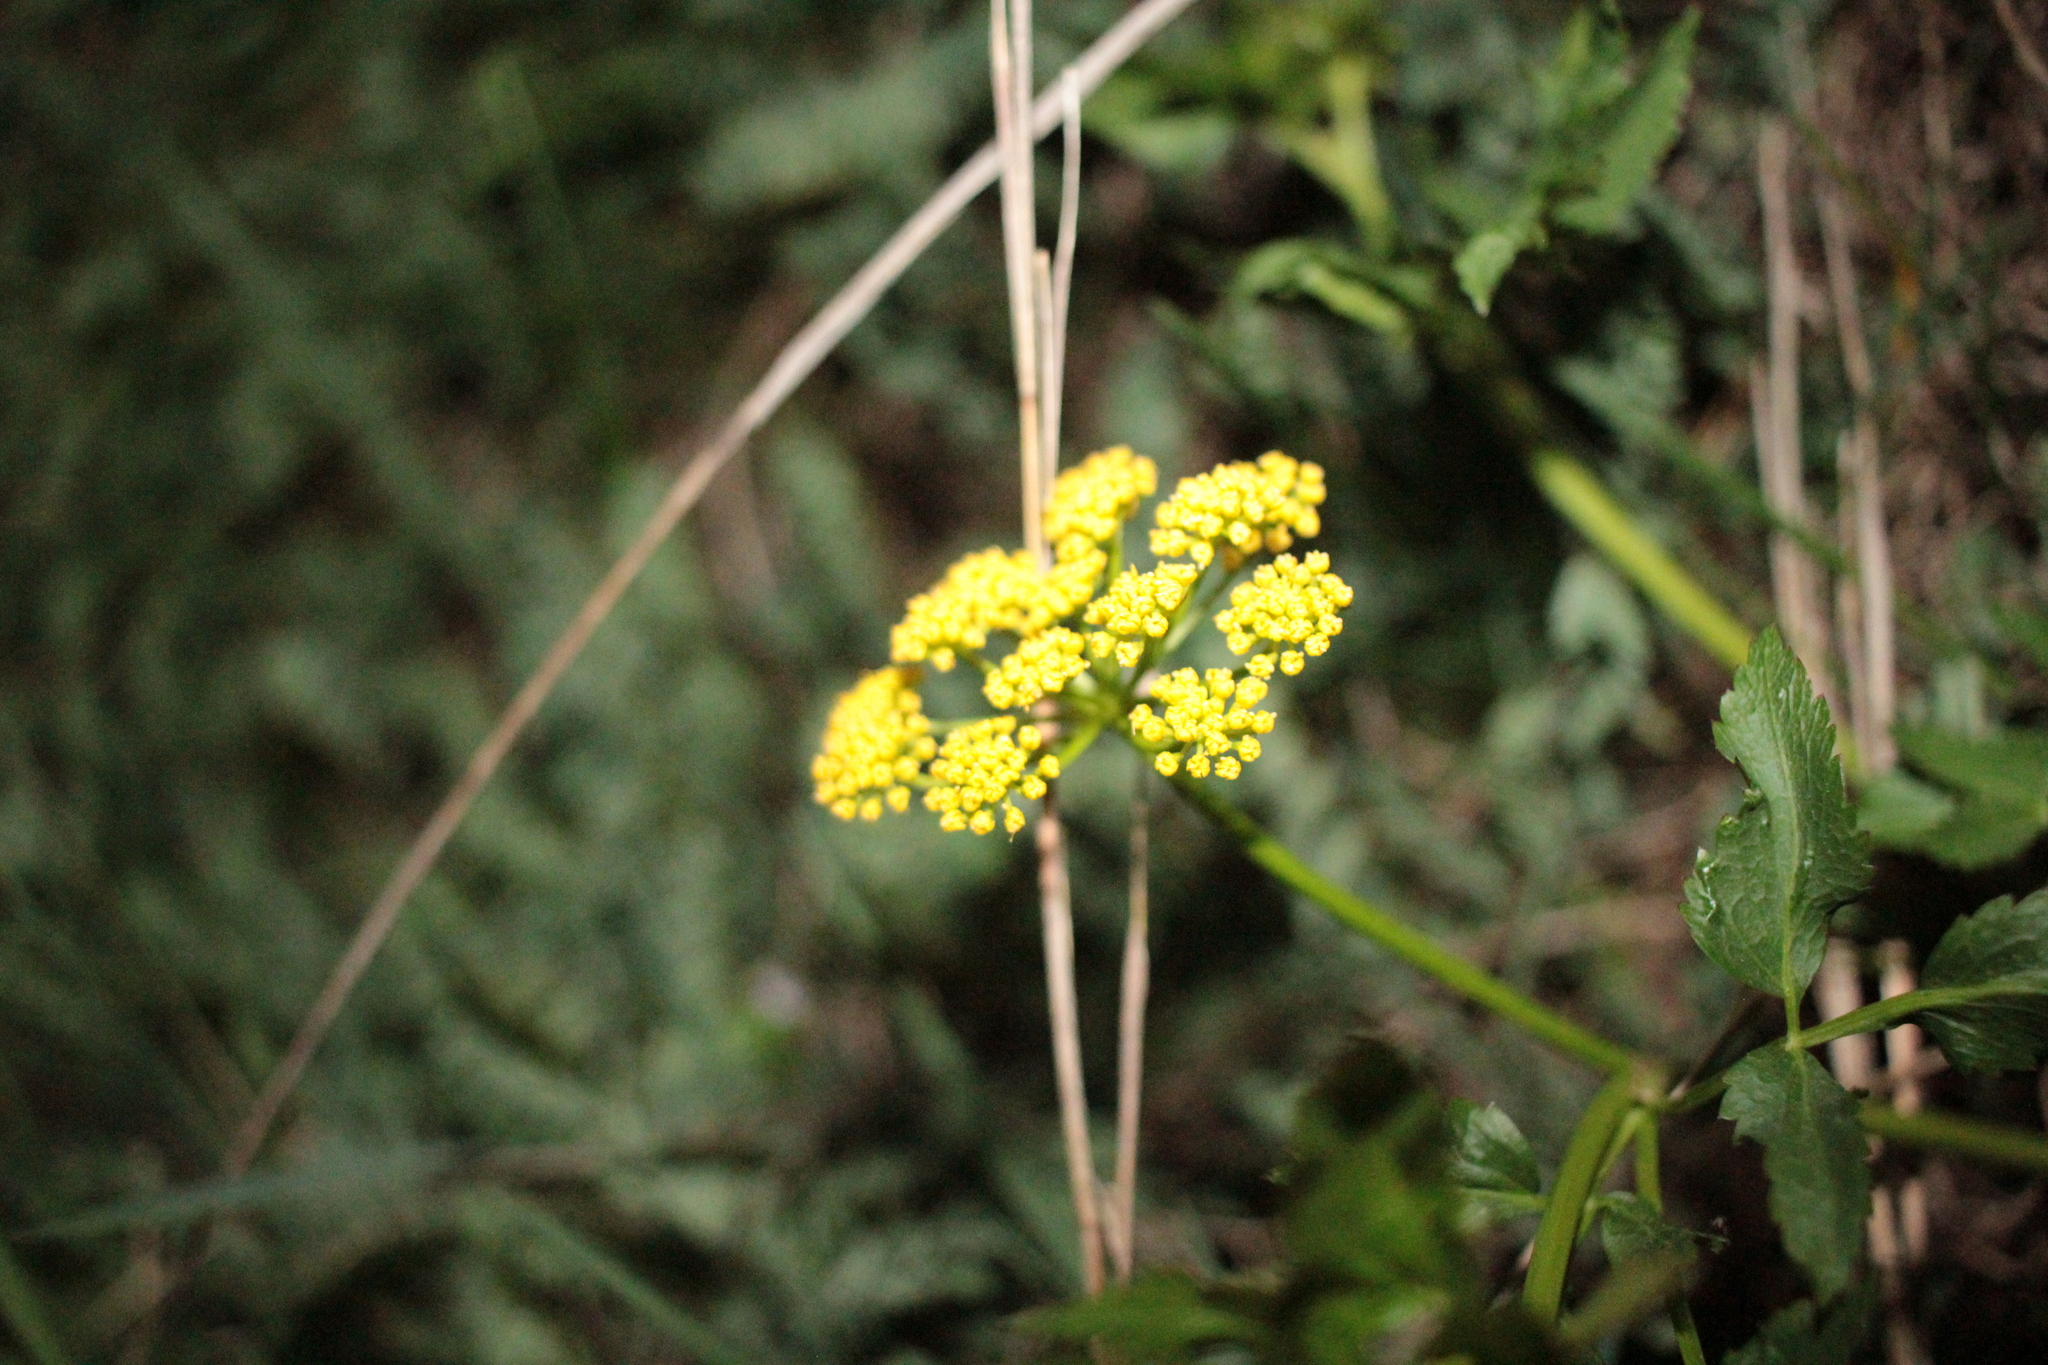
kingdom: Plantae
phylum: Tracheophyta
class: Magnoliopsida
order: Apiales
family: Apiaceae
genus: Zizia
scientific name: Zizia aurea
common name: Golden alexanders
